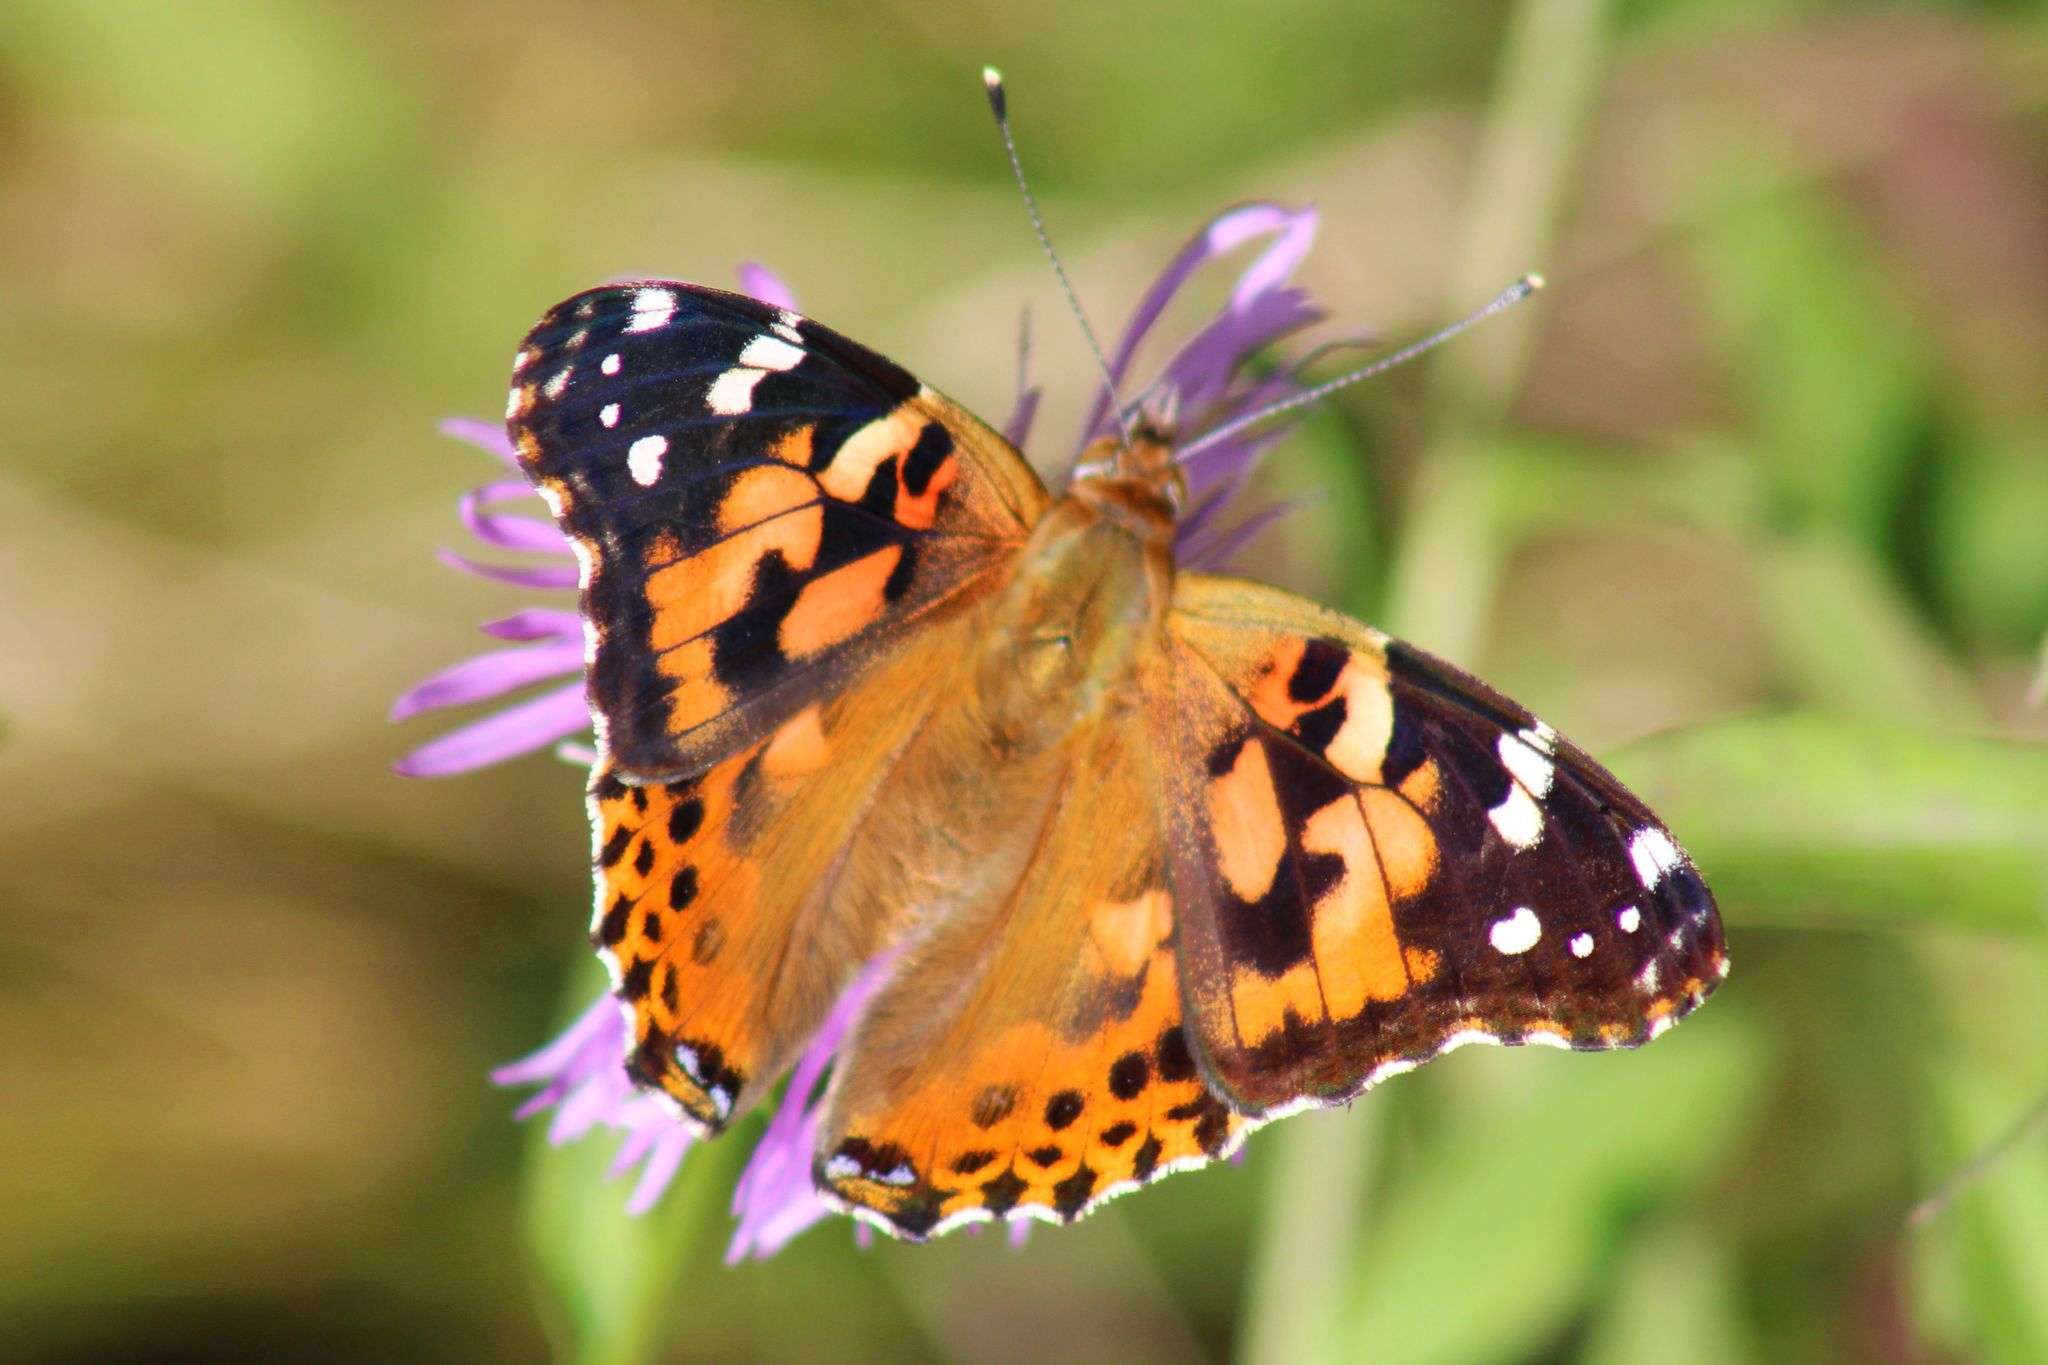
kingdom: Animalia
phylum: Arthropoda
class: Insecta
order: Lepidoptera
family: Nymphalidae
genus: Vanessa
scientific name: Vanessa cardui
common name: Painted lady
